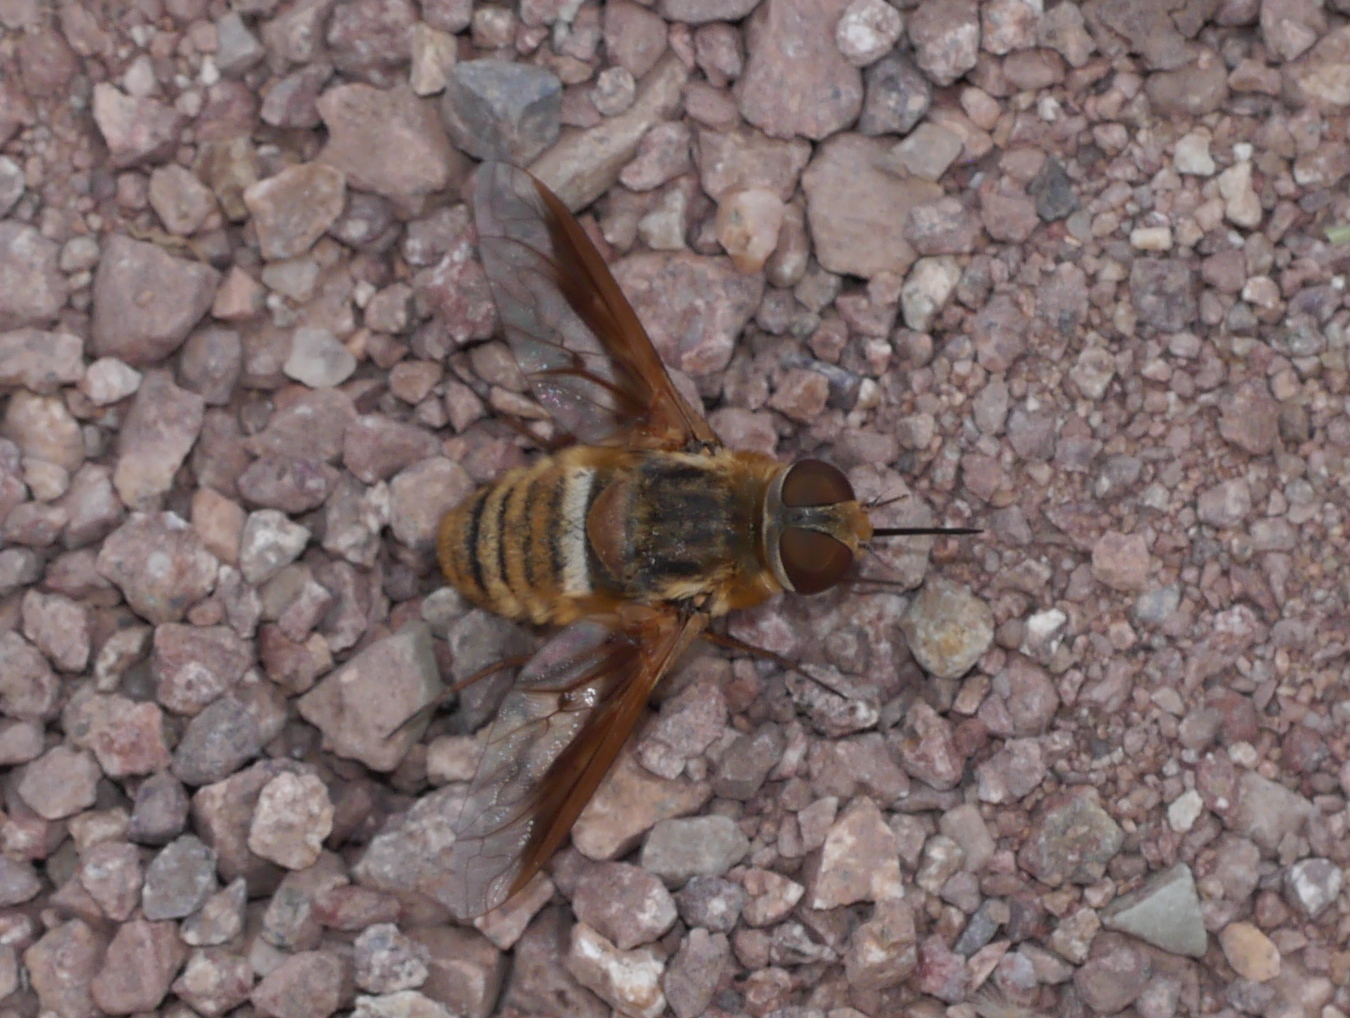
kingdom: Animalia
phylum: Arthropoda
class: Insecta
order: Diptera
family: Bombyliidae
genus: Exoprosopa
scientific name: Exoprosopa rostrifera
